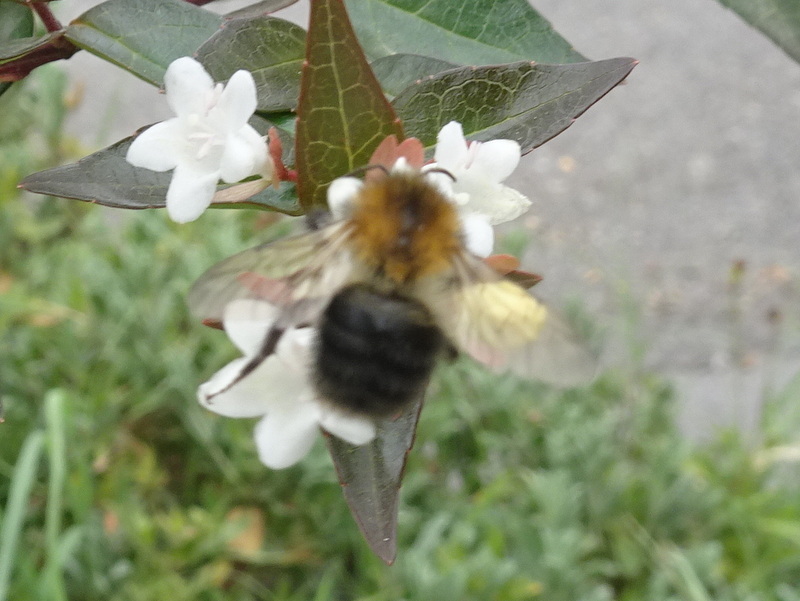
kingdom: Animalia
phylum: Arthropoda
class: Insecta
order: Hymenoptera
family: Apidae
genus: Bombus
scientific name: Bombus pascuorum
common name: Common carder bee
